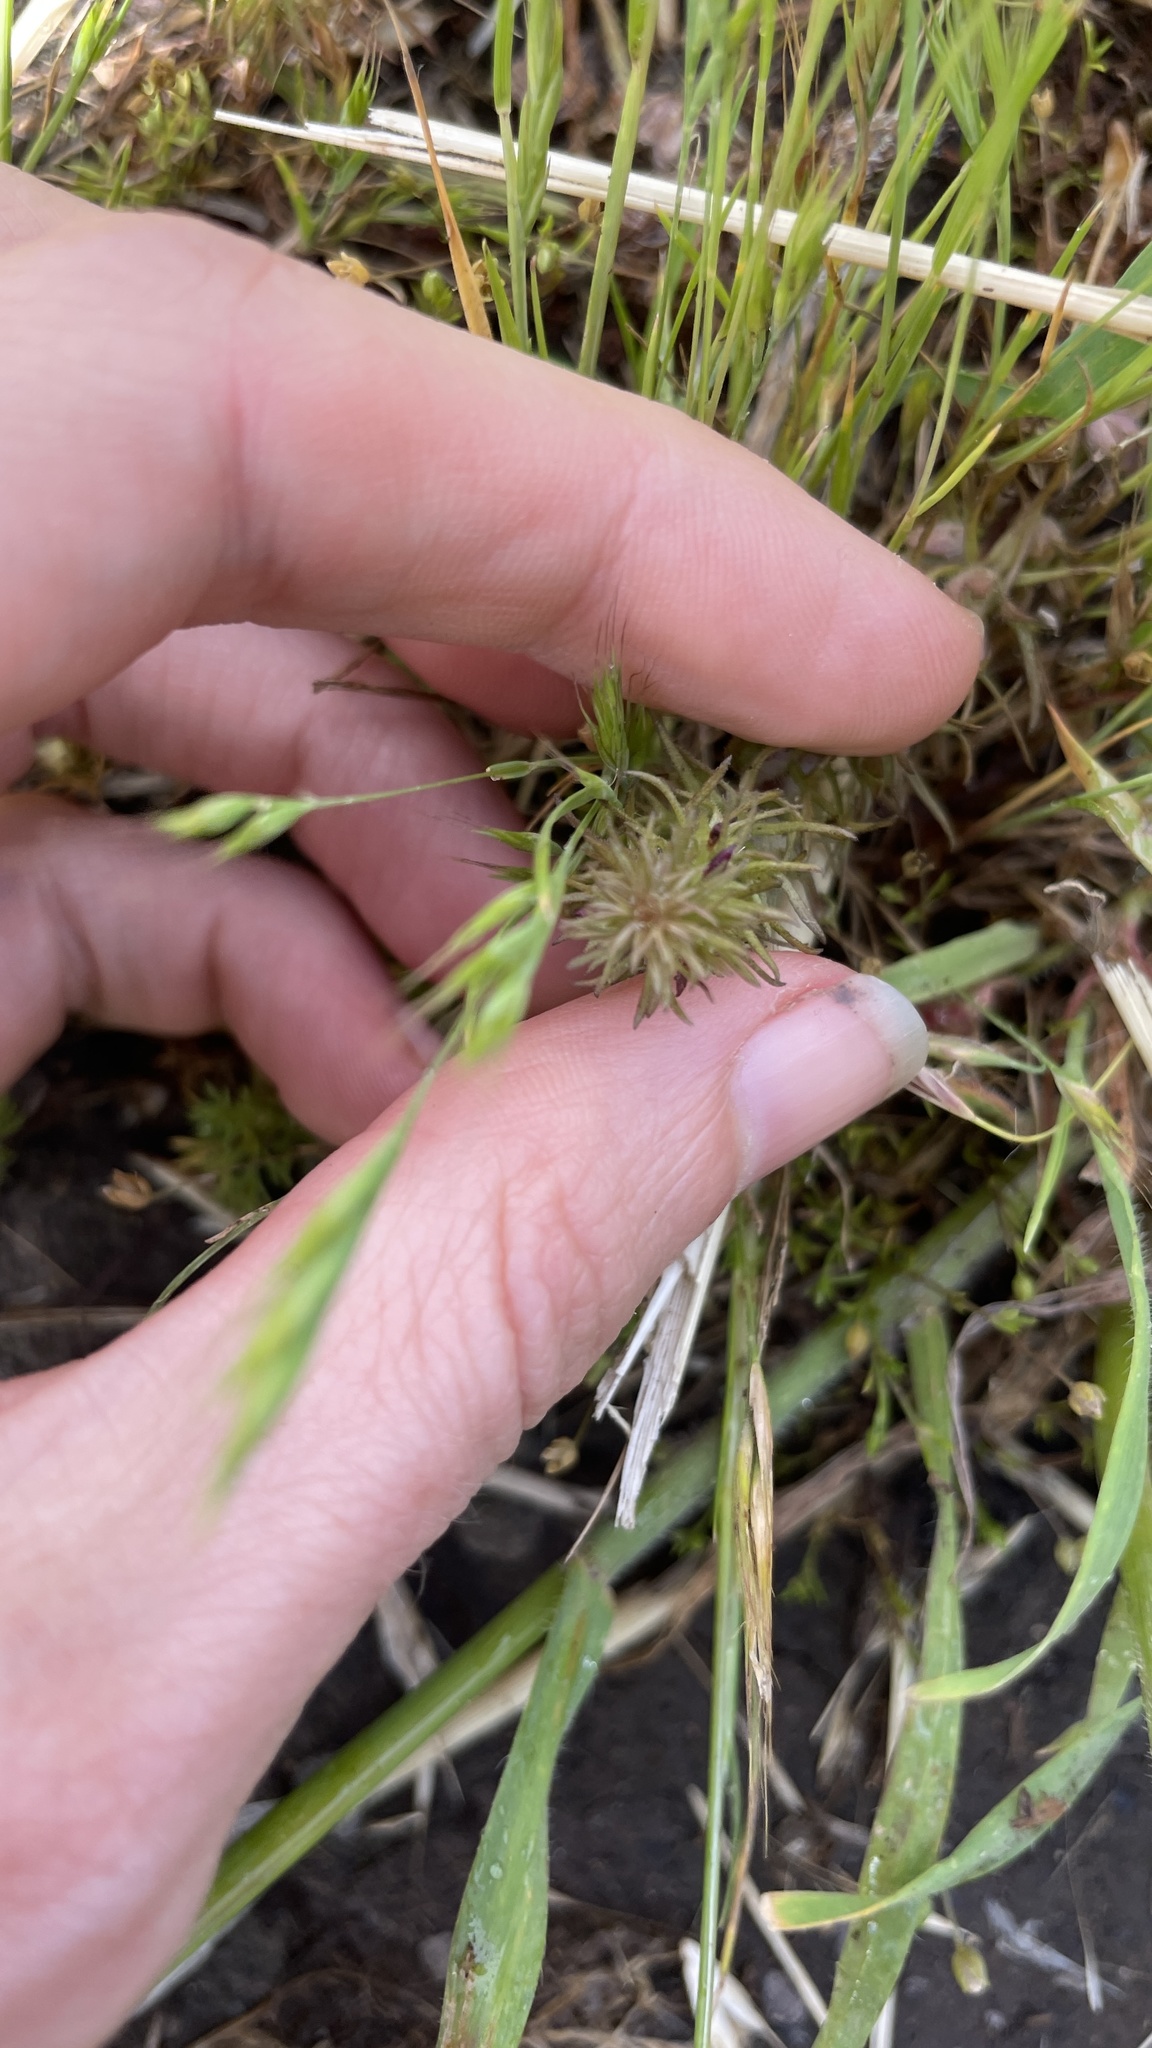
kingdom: Plantae
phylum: Tracheophyta
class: Magnoliopsida
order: Lamiales
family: Orobanchaceae
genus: Triphysaria
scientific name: Triphysaria pusilla
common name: Dwarf false owl-clover
